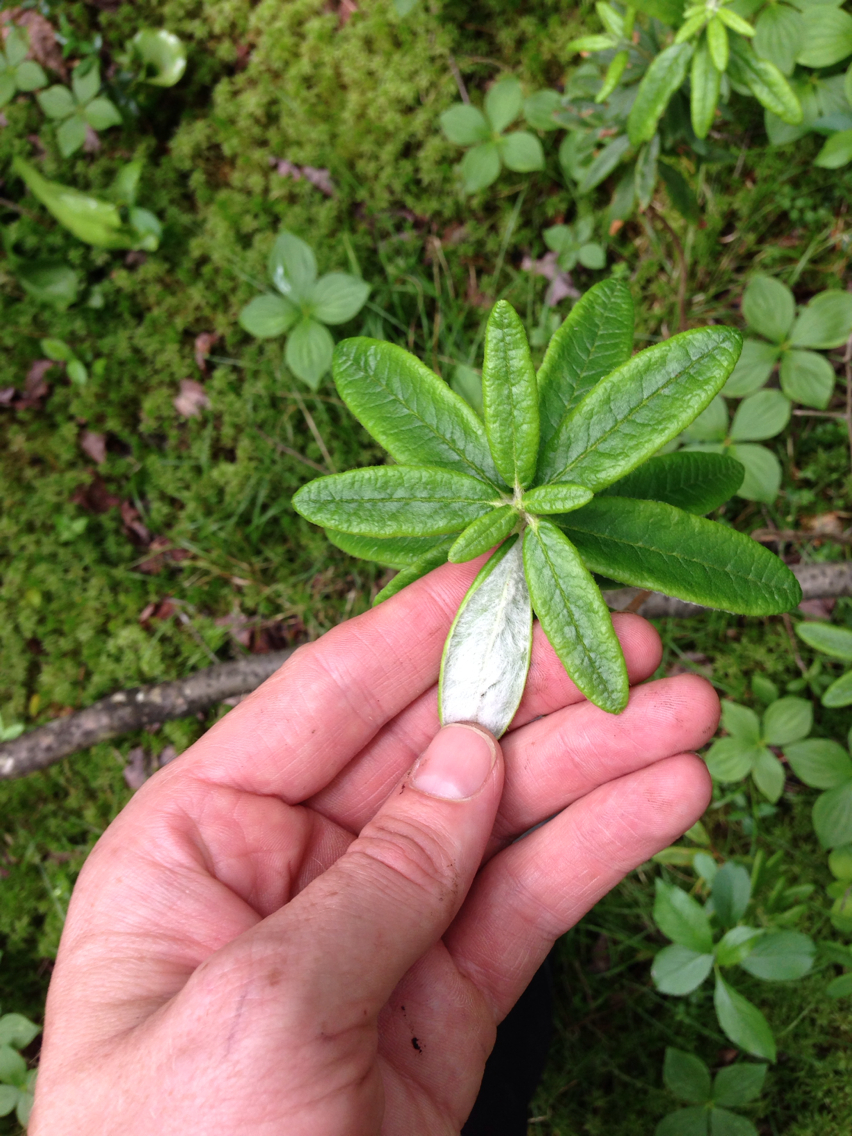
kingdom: Plantae
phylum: Tracheophyta
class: Magnoliopsida
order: Ericales
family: Ericaceae
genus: Rhododendron
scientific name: Rhododendron groenlandicum
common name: Bog labrador tea
